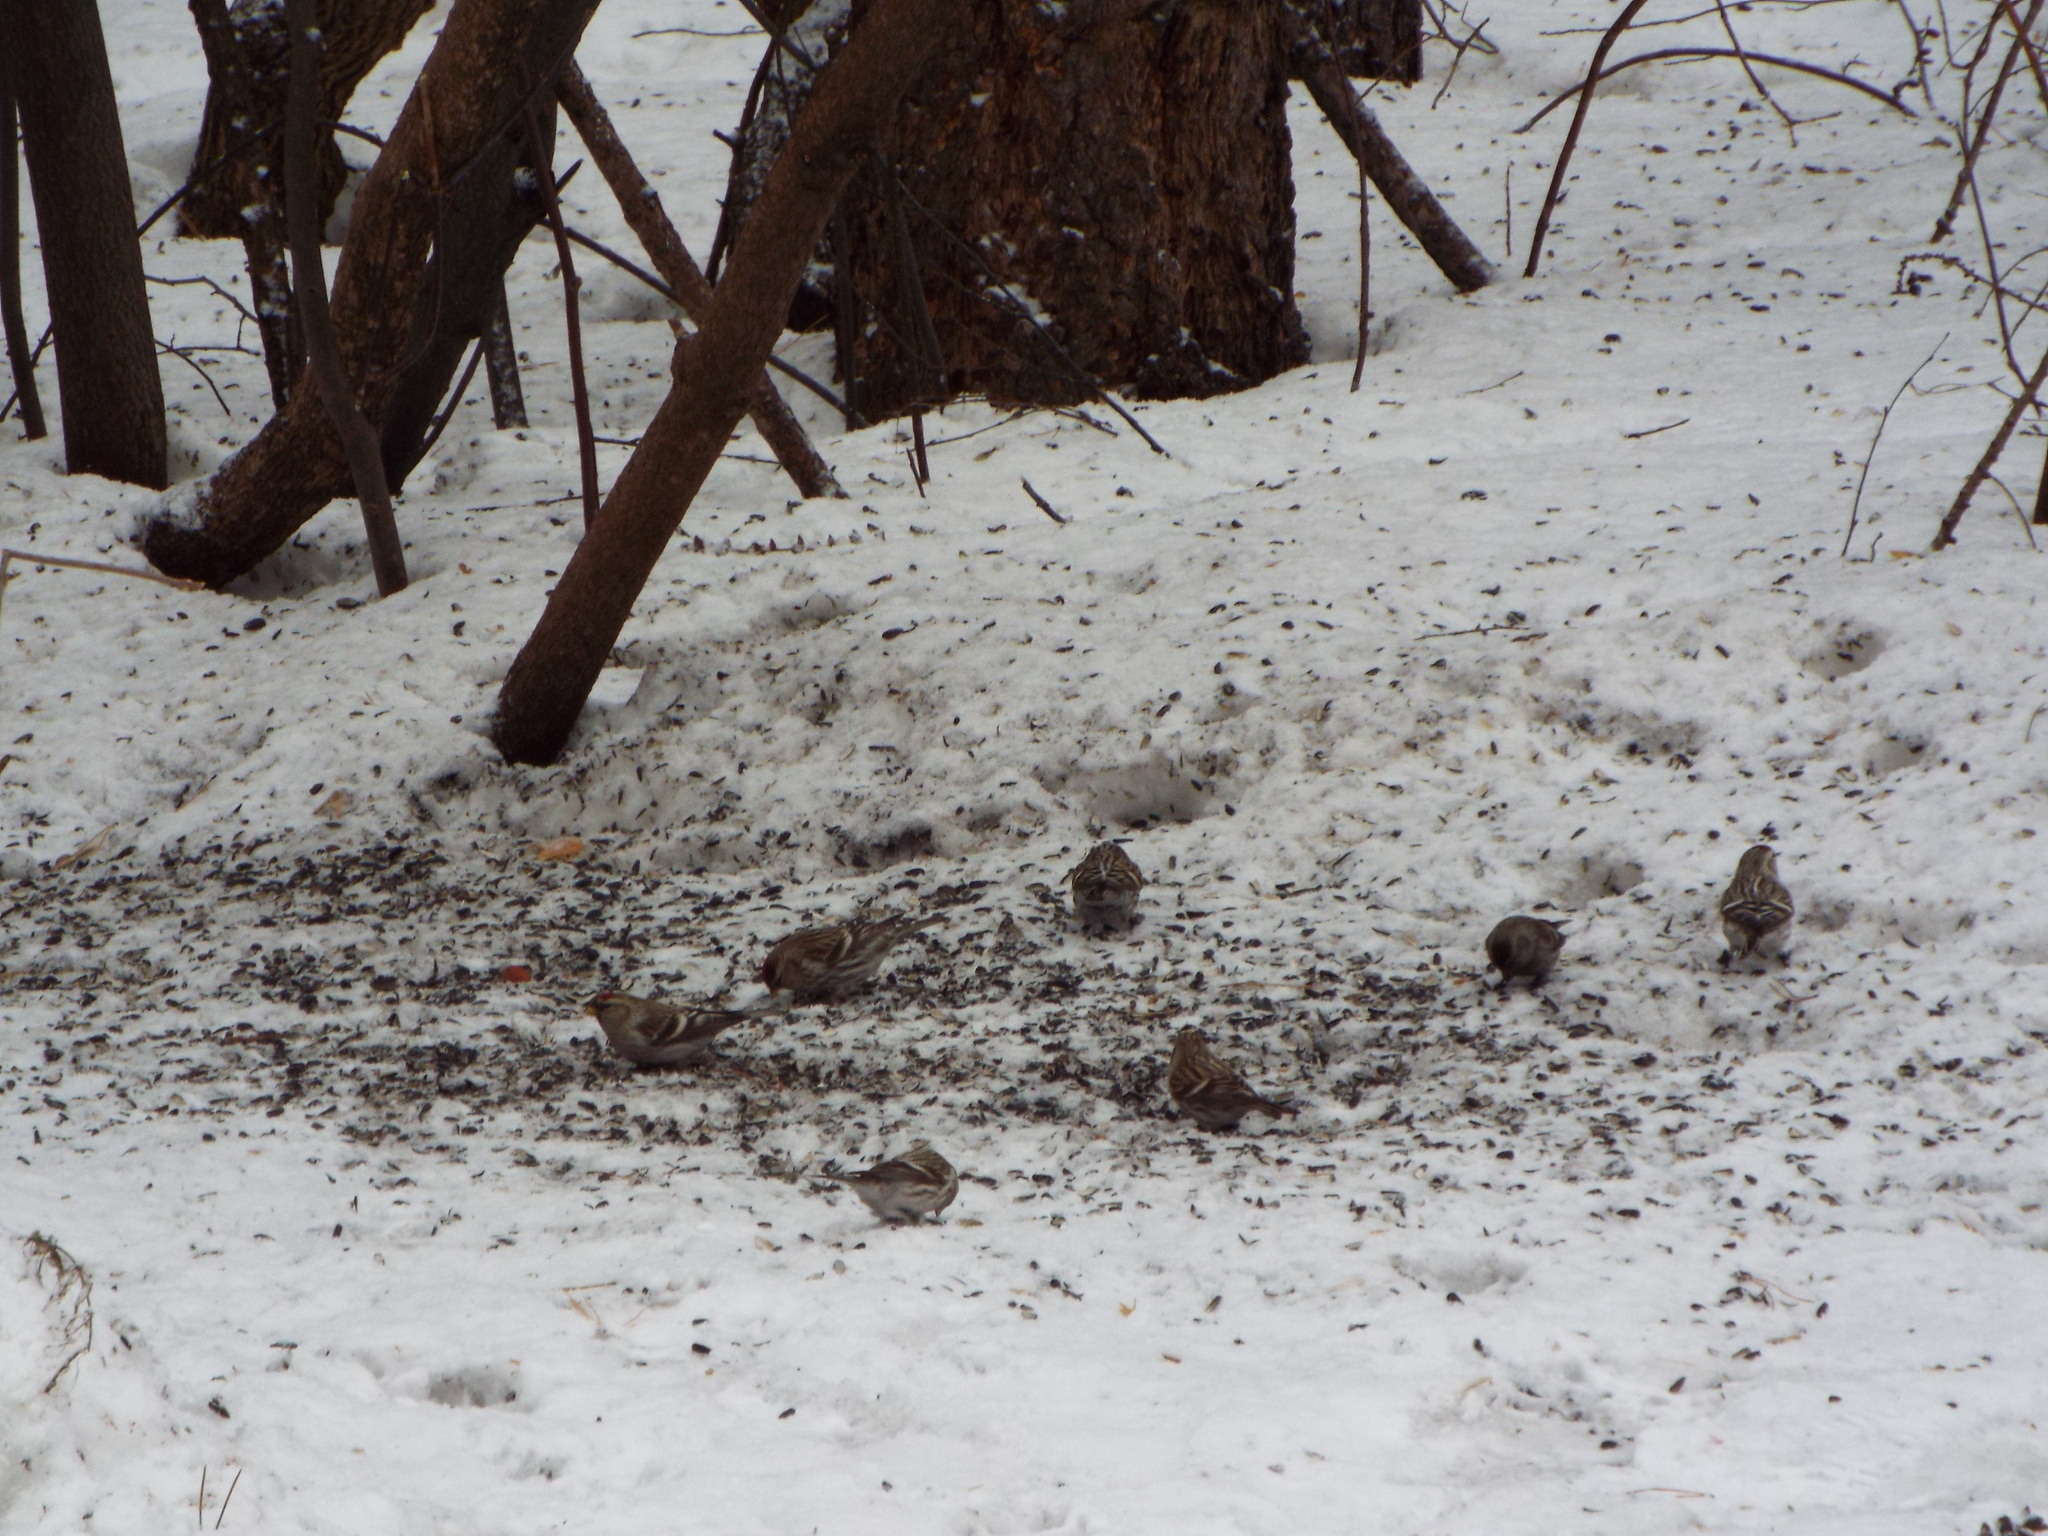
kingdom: Animalia
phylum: Chordata
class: Aves
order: Passeriformes
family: Fringillidae
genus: Acanthis
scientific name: Acanthis flammea
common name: Common redpoll
